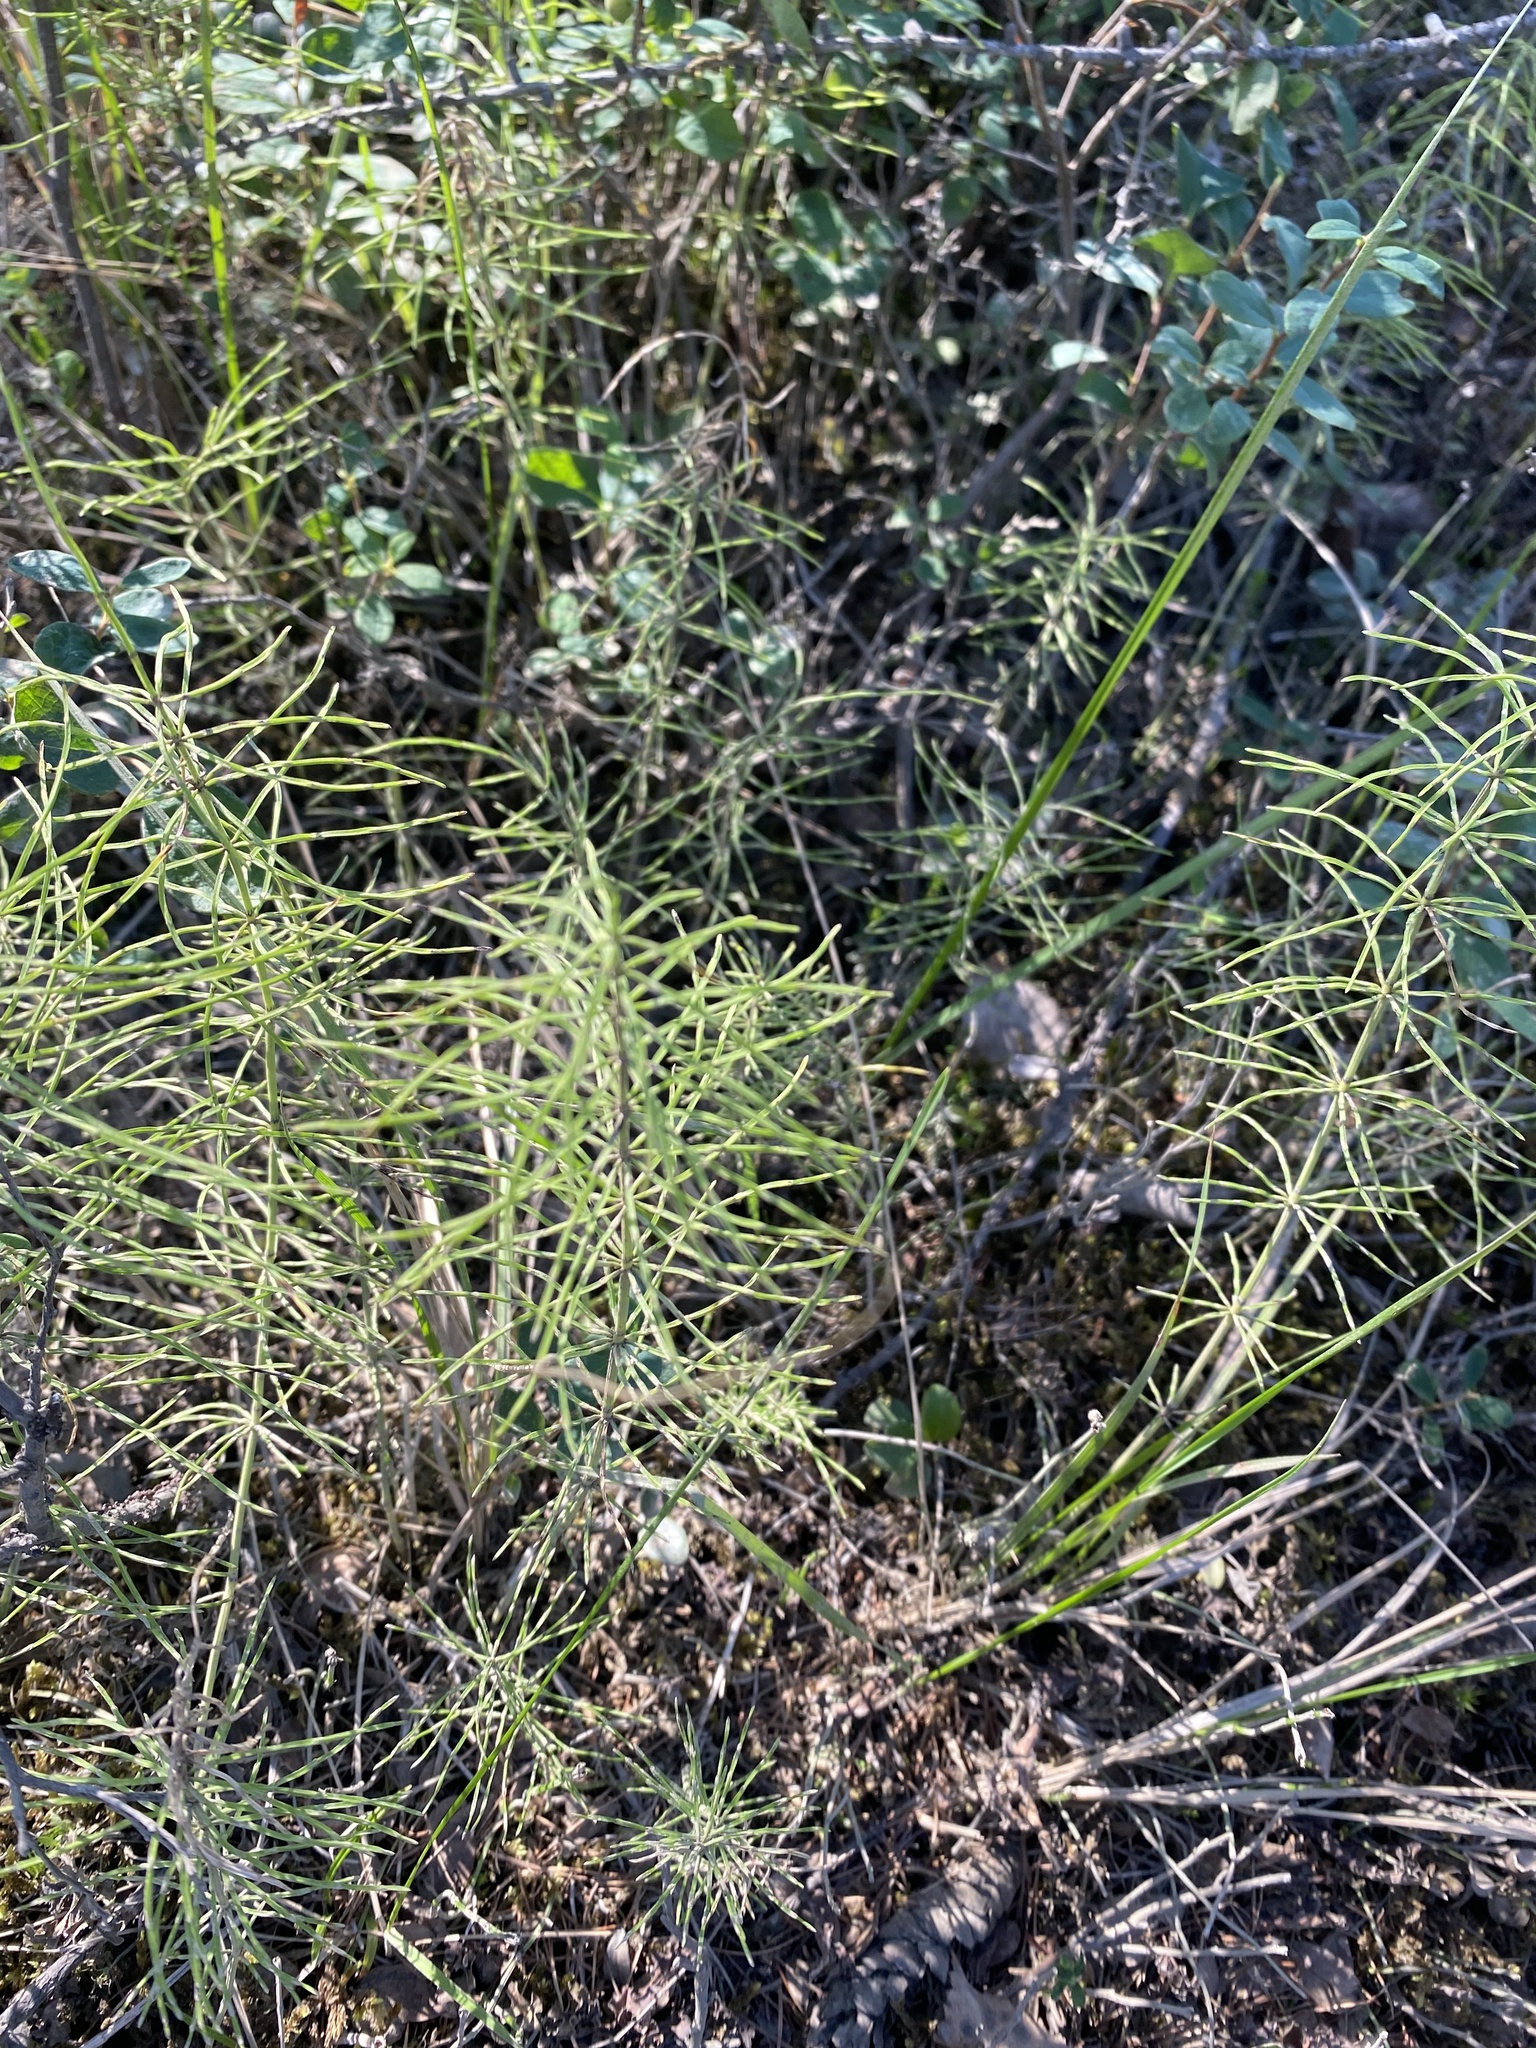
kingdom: Plantae
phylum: Tracheophyta
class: Polypodiopsida
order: Equisetales
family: Equisetaceae
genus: Equisetum
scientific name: Equisetum pratense
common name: Meadow horsetail
